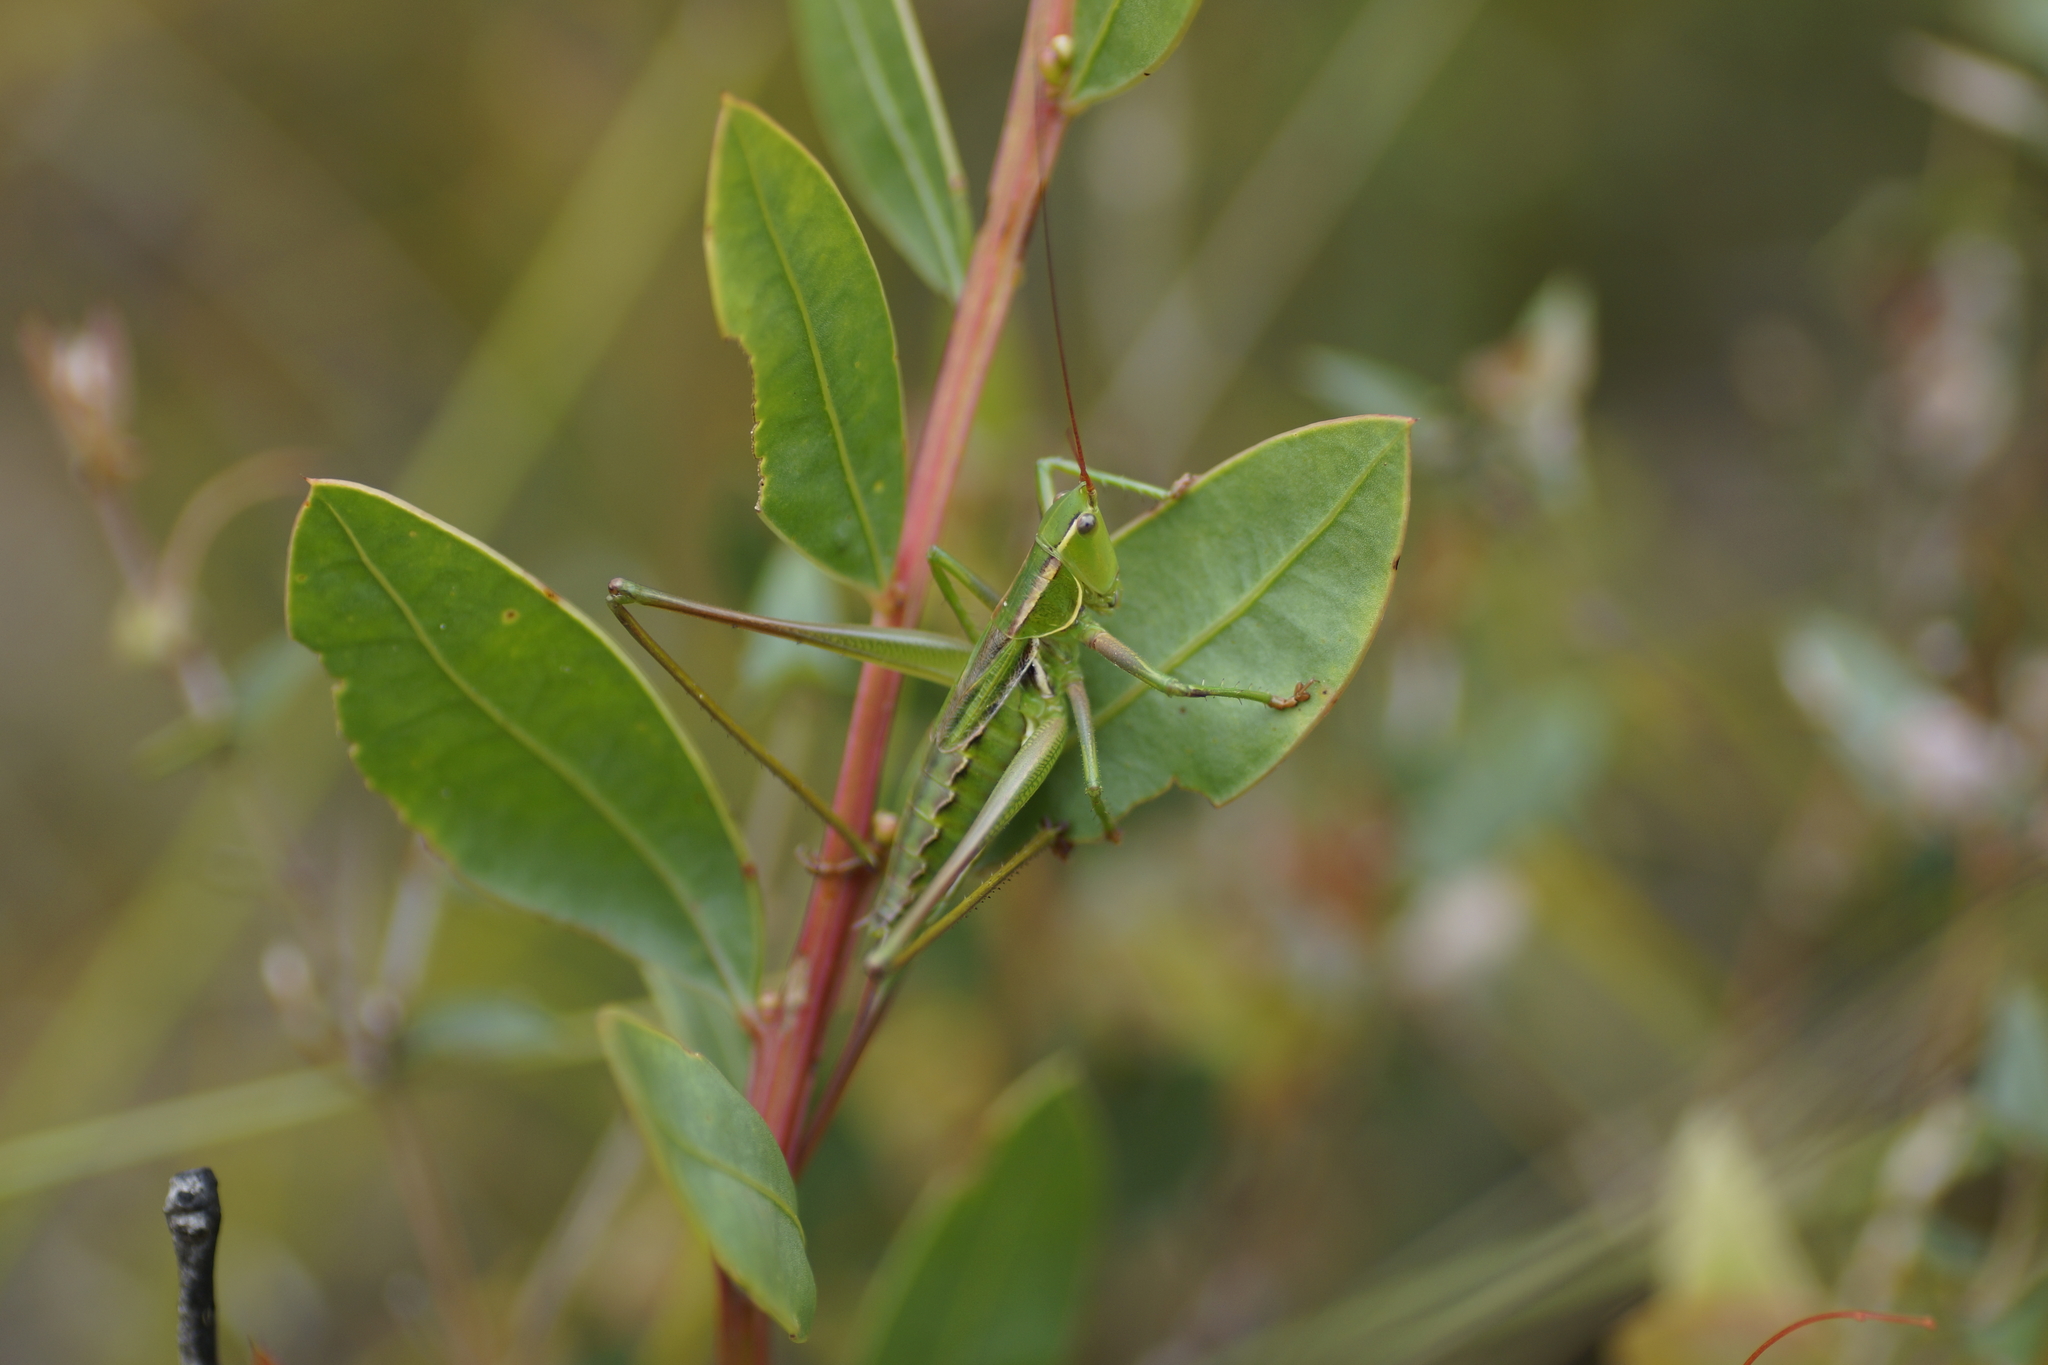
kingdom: Animalia
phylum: Arthropoda
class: Insecta
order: Orthoptera
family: Tettigoniidae
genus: Metaballus
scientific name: Metaballus sagaeformis
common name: Adelaide marauding katydid
